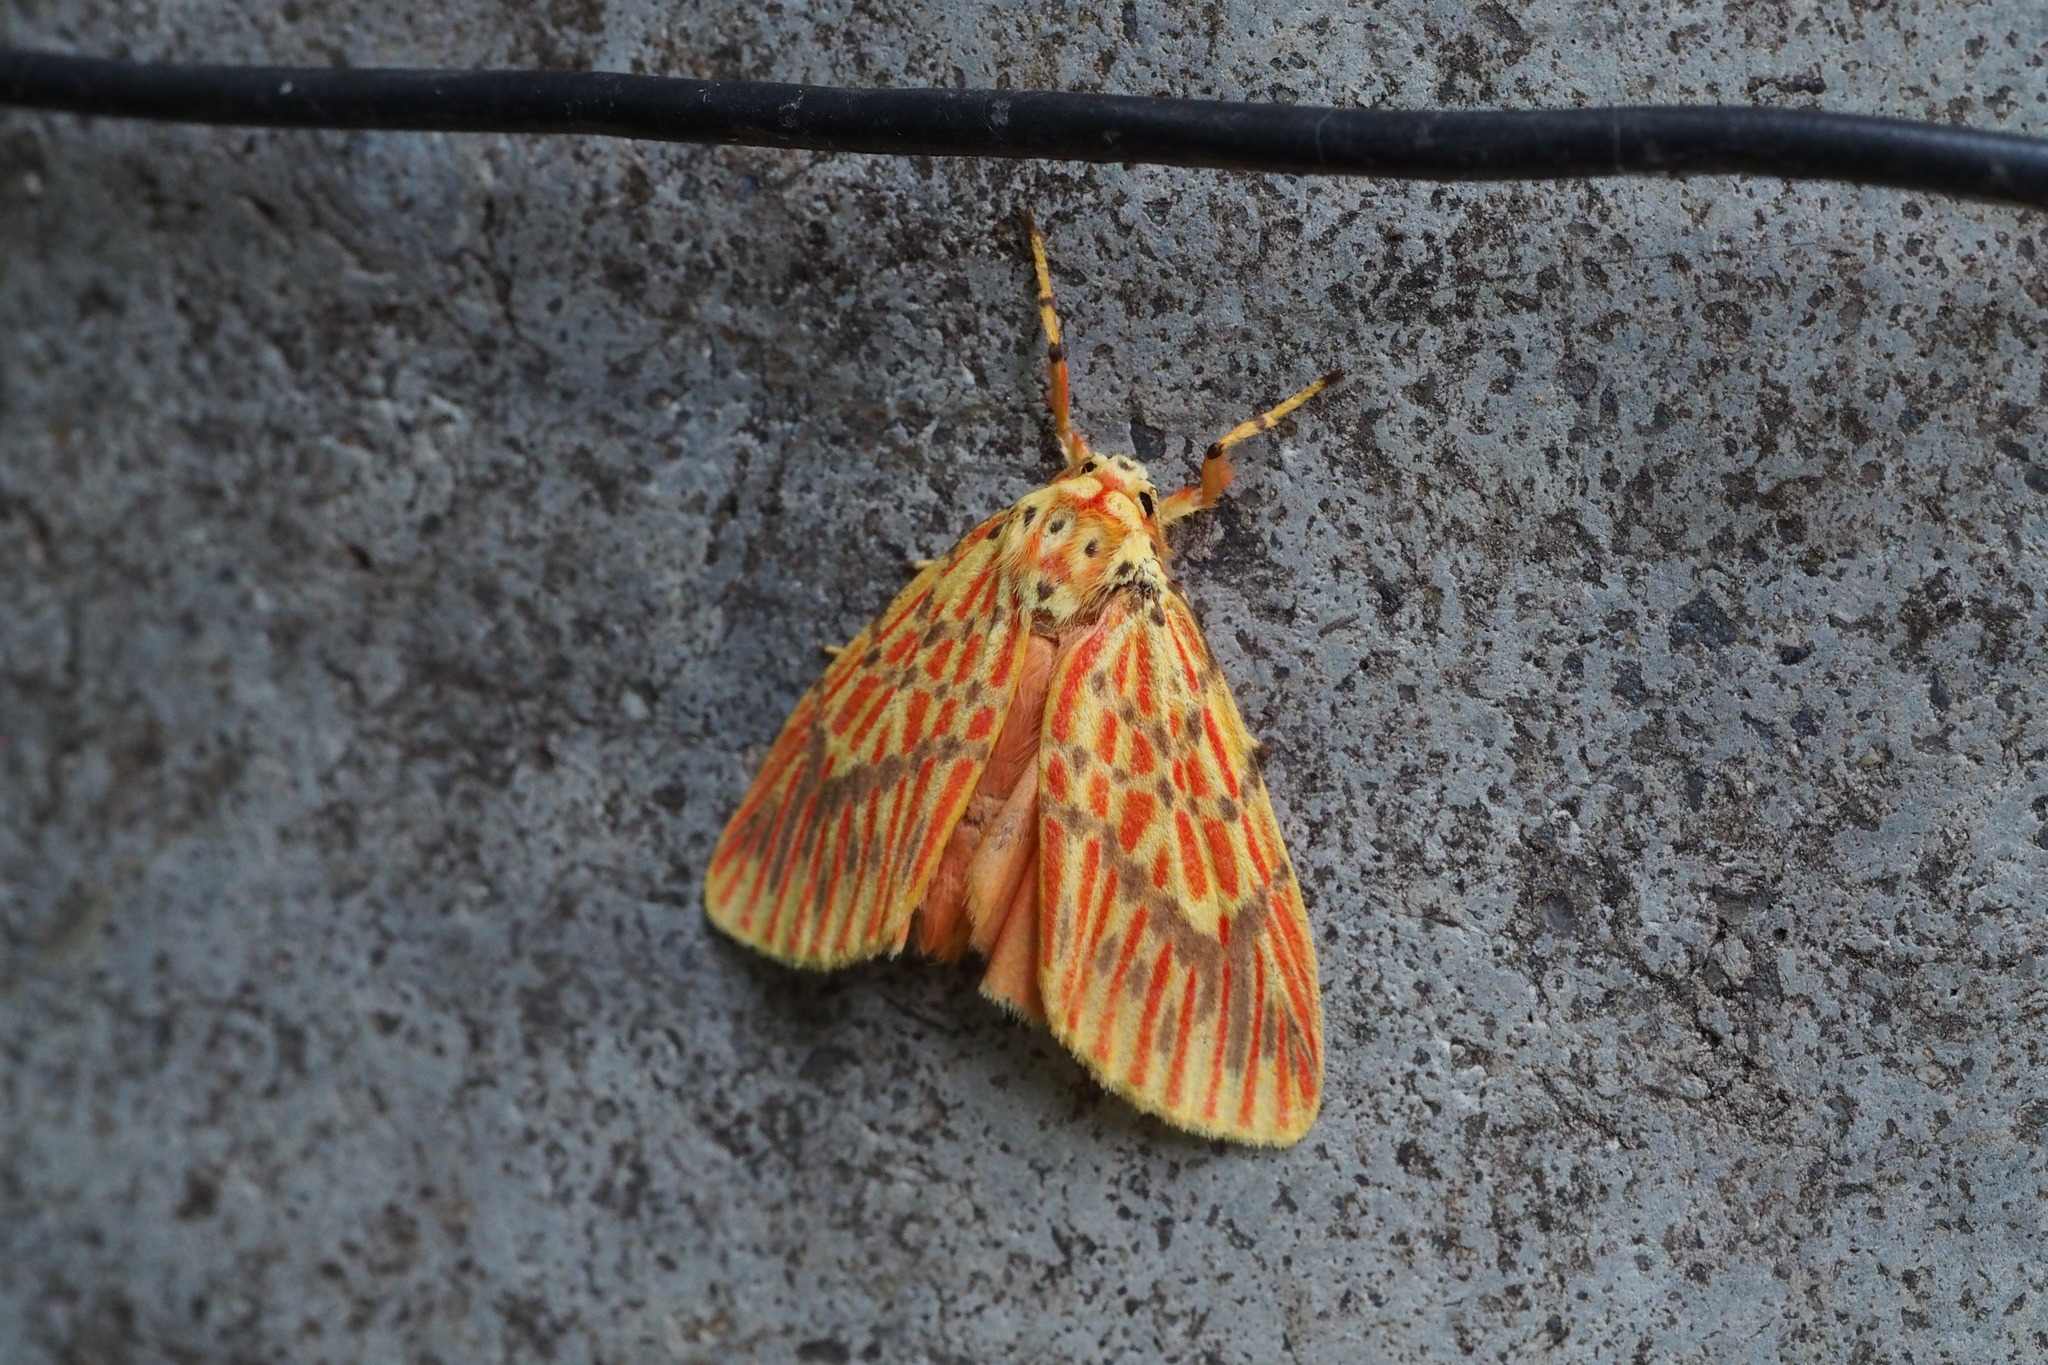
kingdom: Animalia
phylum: Arthropoda
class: Insecta
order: Lepidoptera
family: Erebidae
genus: Barsine
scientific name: Barsine striata
